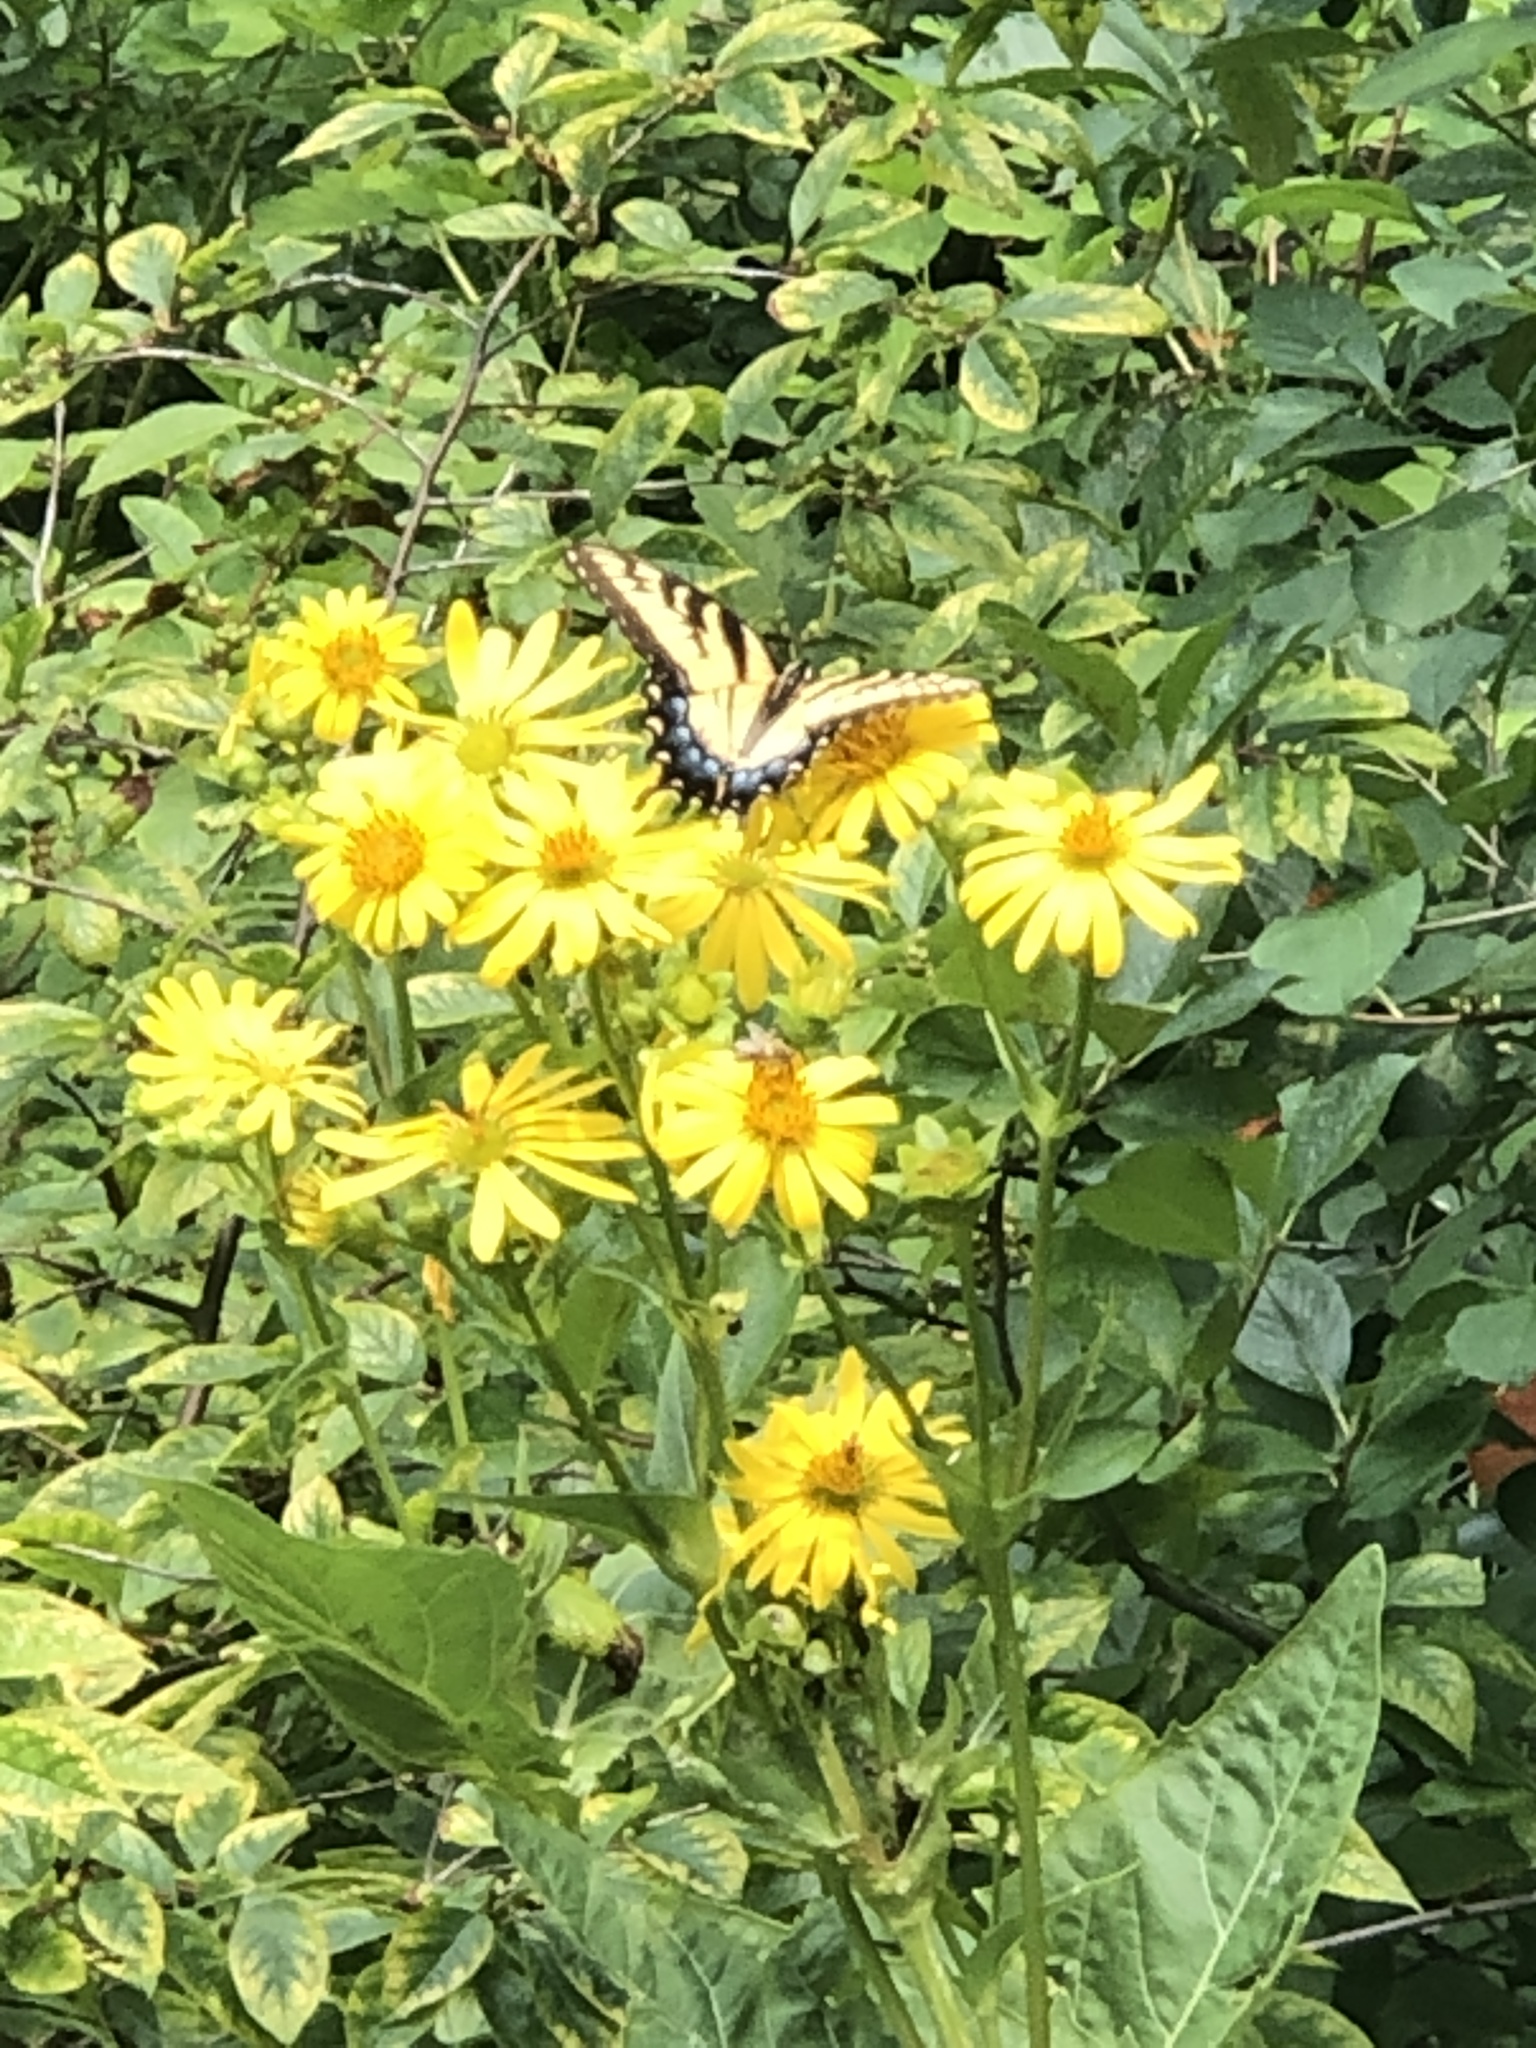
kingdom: Animalia
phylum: Arthropoda
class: Insecta
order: Lepidoptera
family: Papilionidae
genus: Papilio
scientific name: Papilio glaucus
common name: Tiger swallowtail
